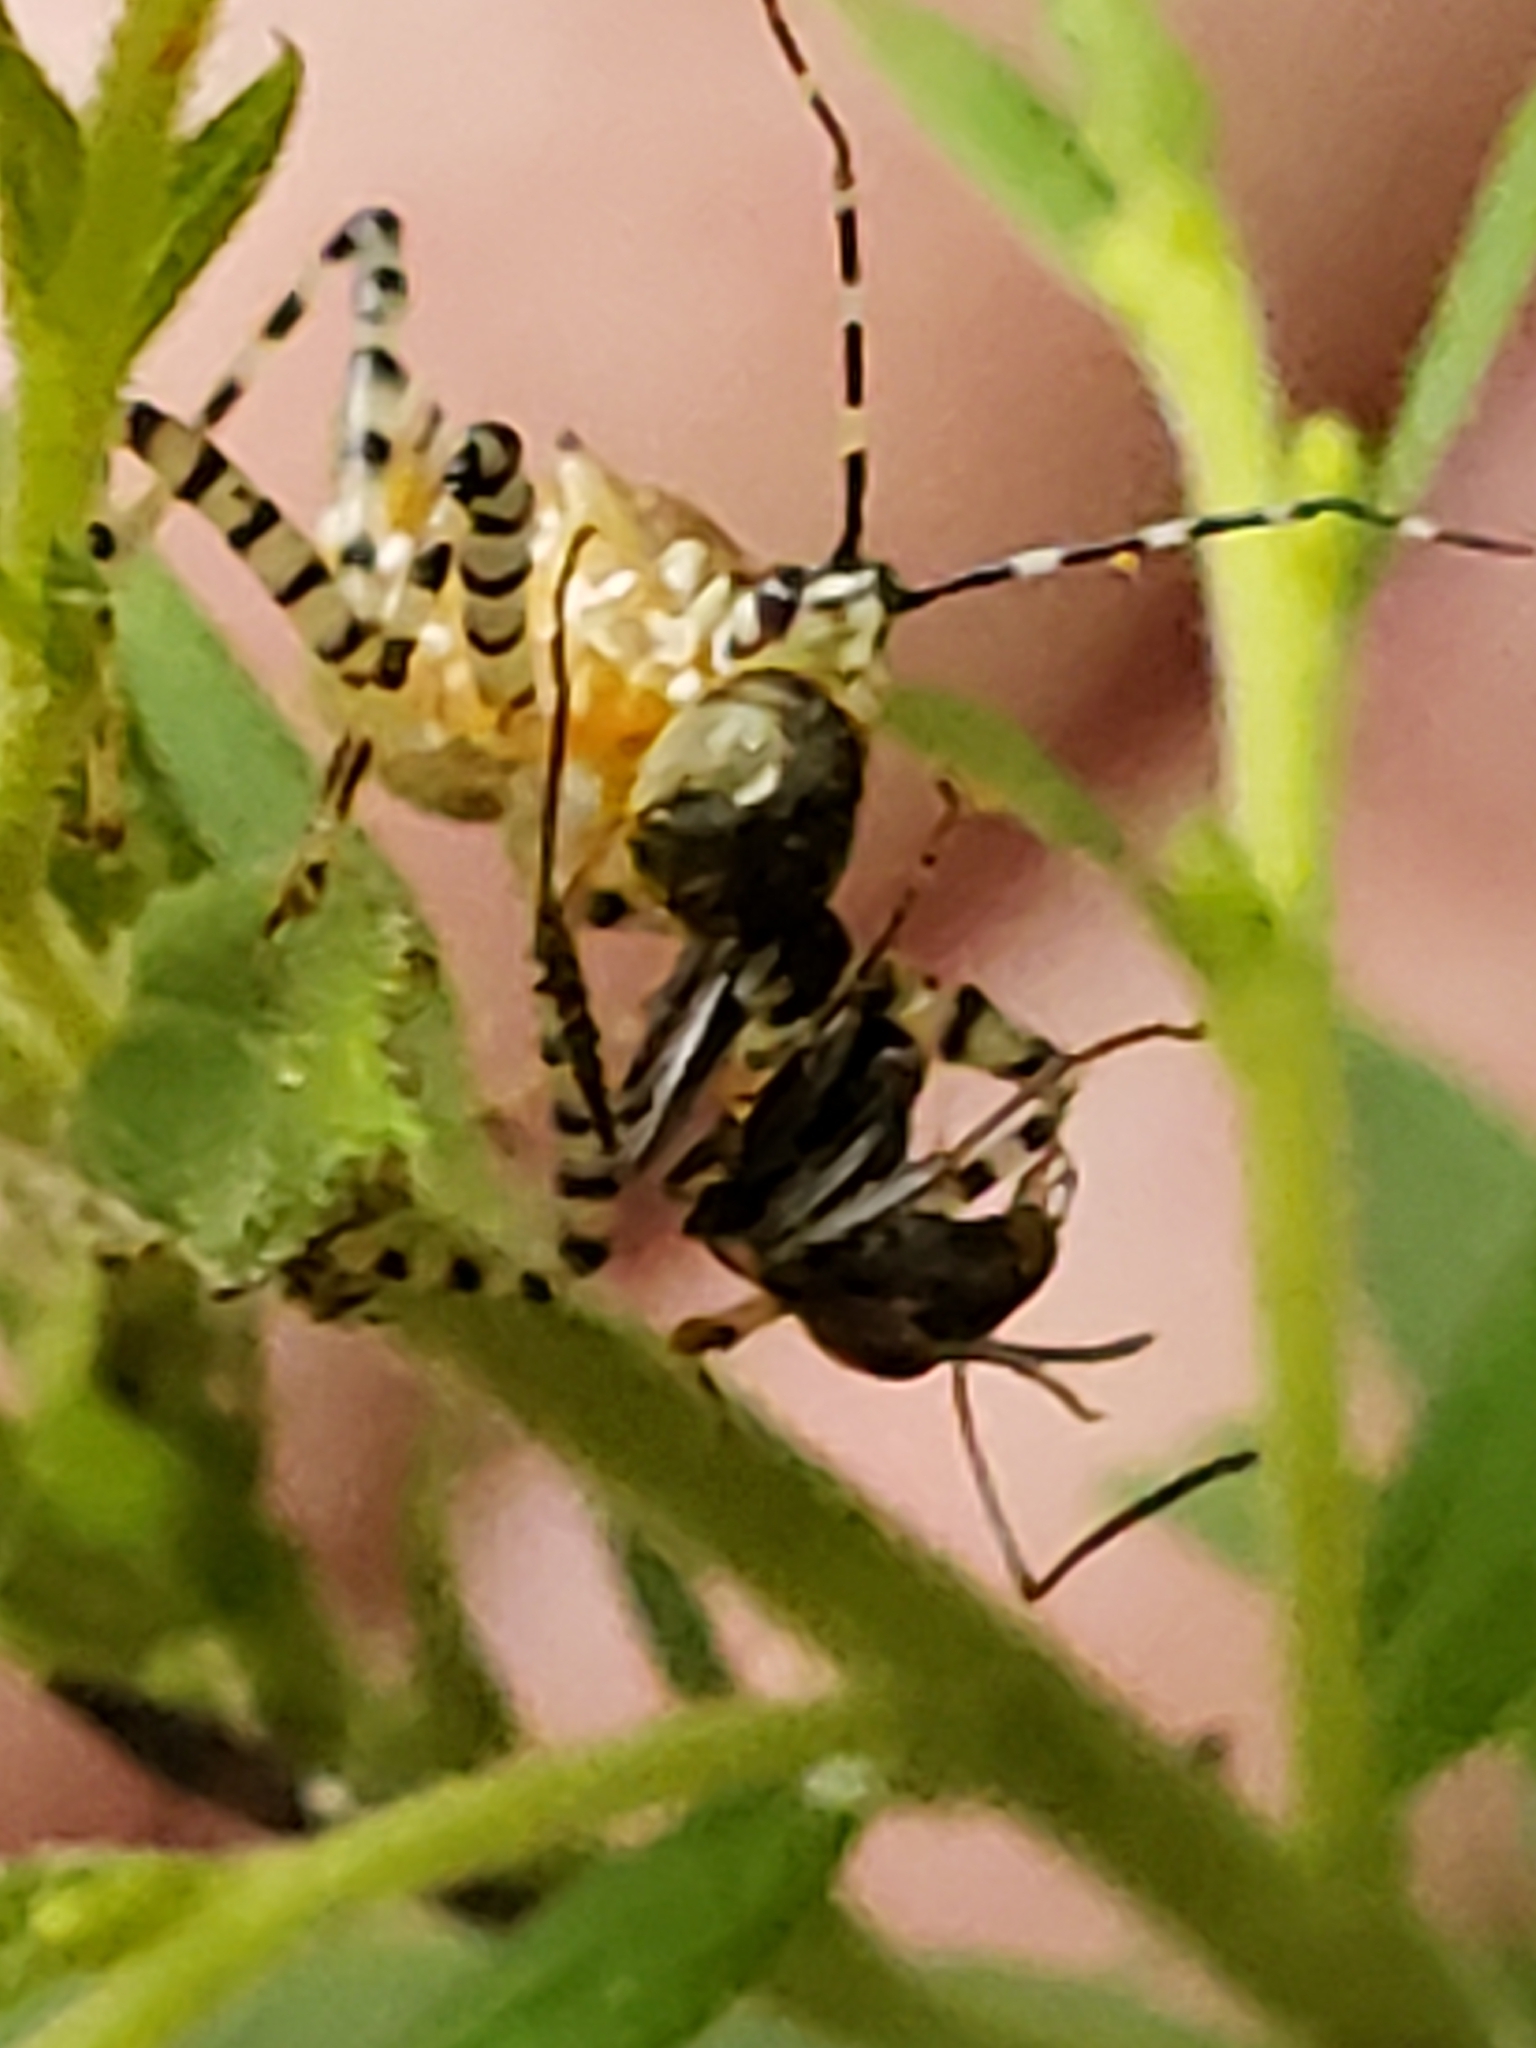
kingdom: Animalia
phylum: Arthropoda
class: Insecta
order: Hemiptera
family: Reduviidae
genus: Pselliopus
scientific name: Pselliopus cinctus
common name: Ringed assassin bug
